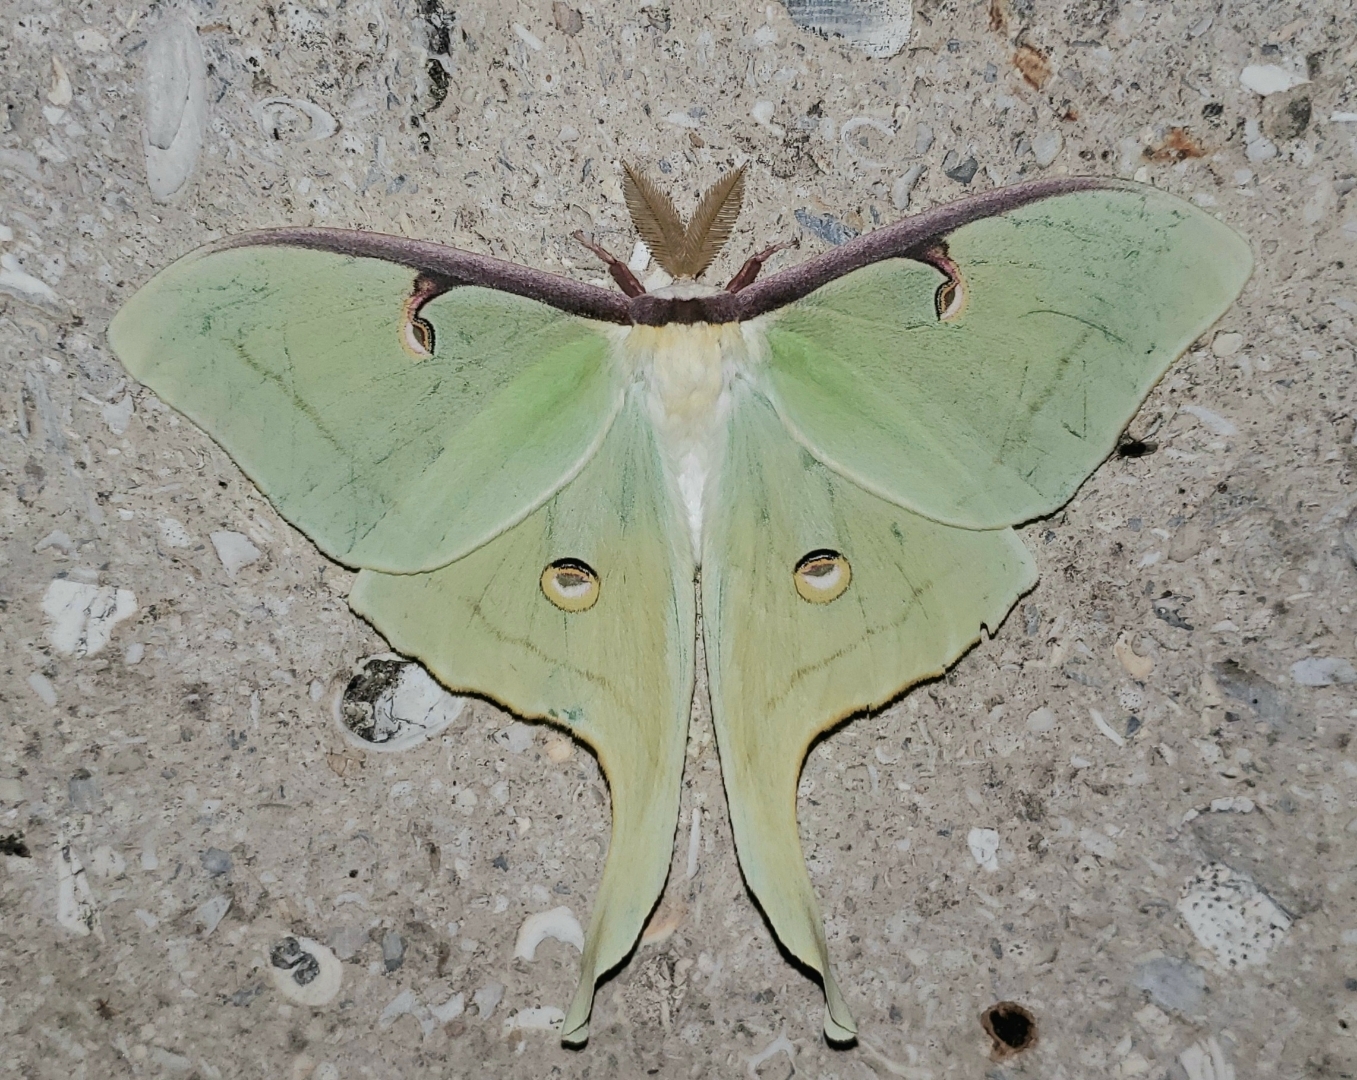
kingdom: Animalia
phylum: Arthropoda
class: Insecta
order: Lepidoptera
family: Saturniidae
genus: Actias
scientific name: Actias luna
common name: Luna moth
